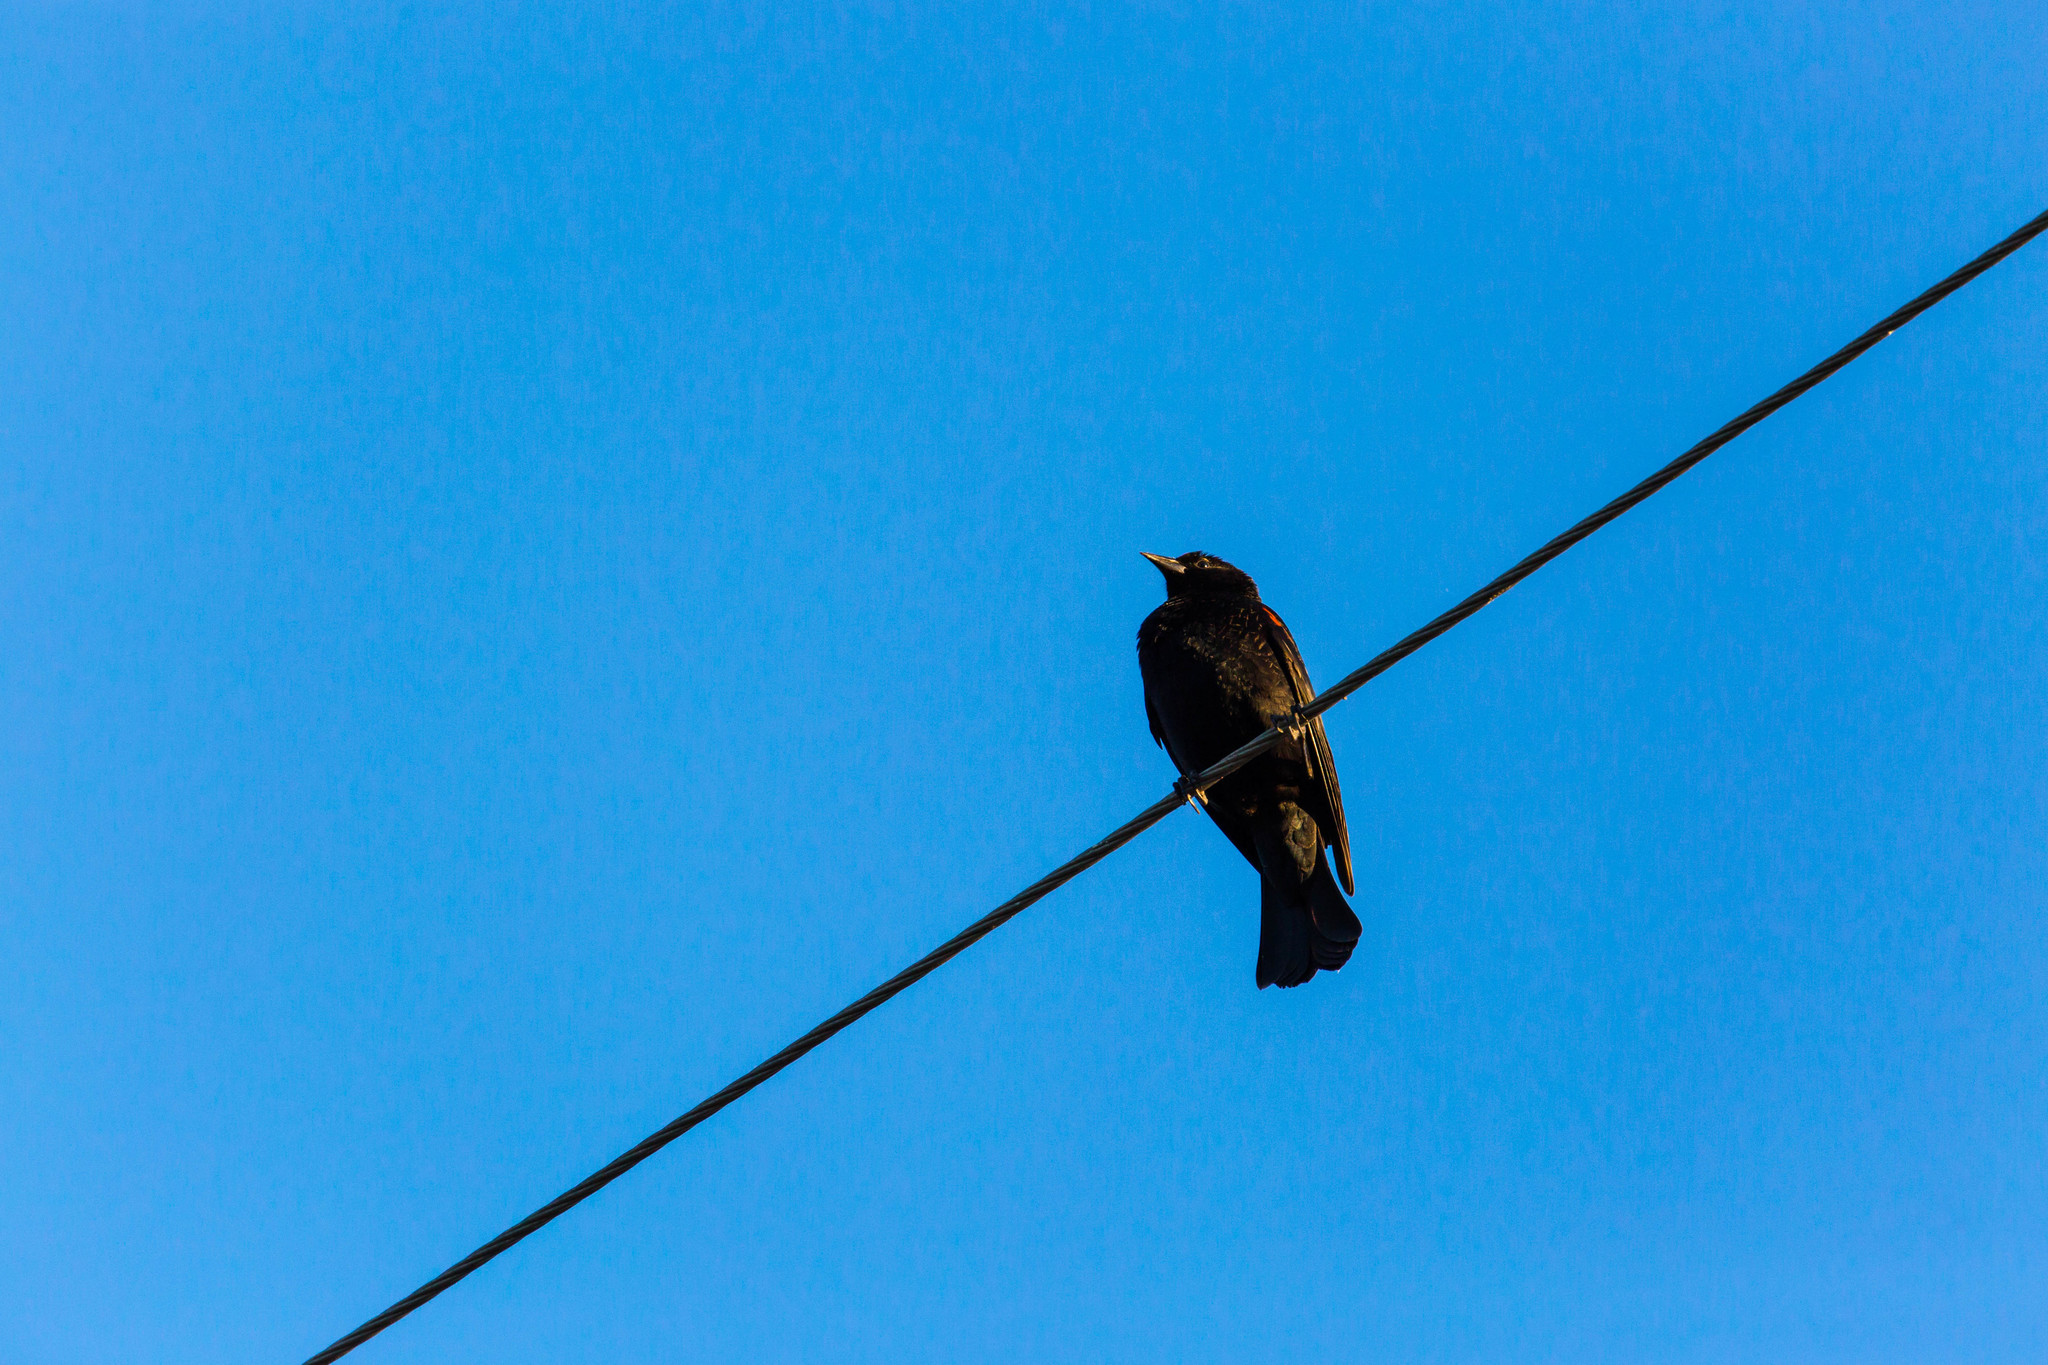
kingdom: Animalia
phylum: Chordata
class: Aves
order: Passeriformes
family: Icteridae
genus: Agelaius
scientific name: Agelaius phoeniceus
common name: Red-winged blackbird
